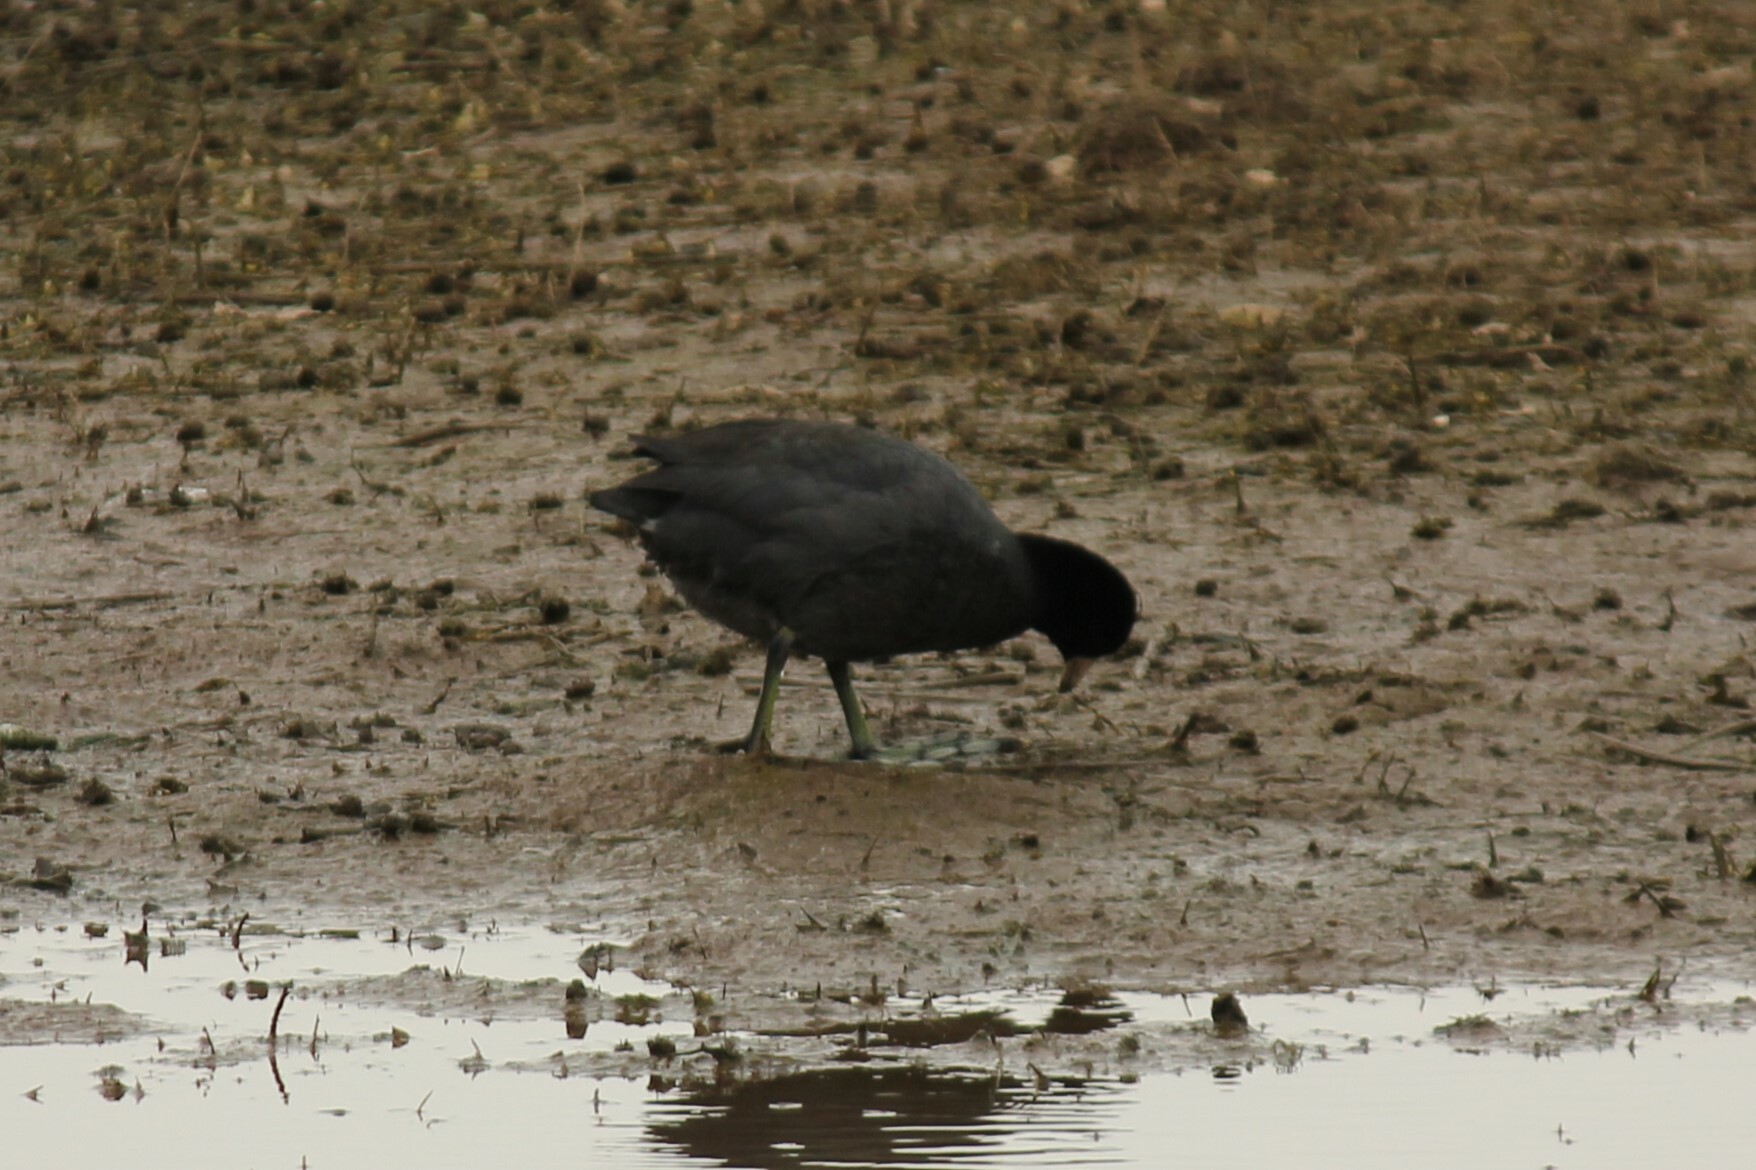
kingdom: Animalia
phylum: Chordata
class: Aves
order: Gruiformes
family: Rallidae
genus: Fulica
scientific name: Fulica americana
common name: American coot
